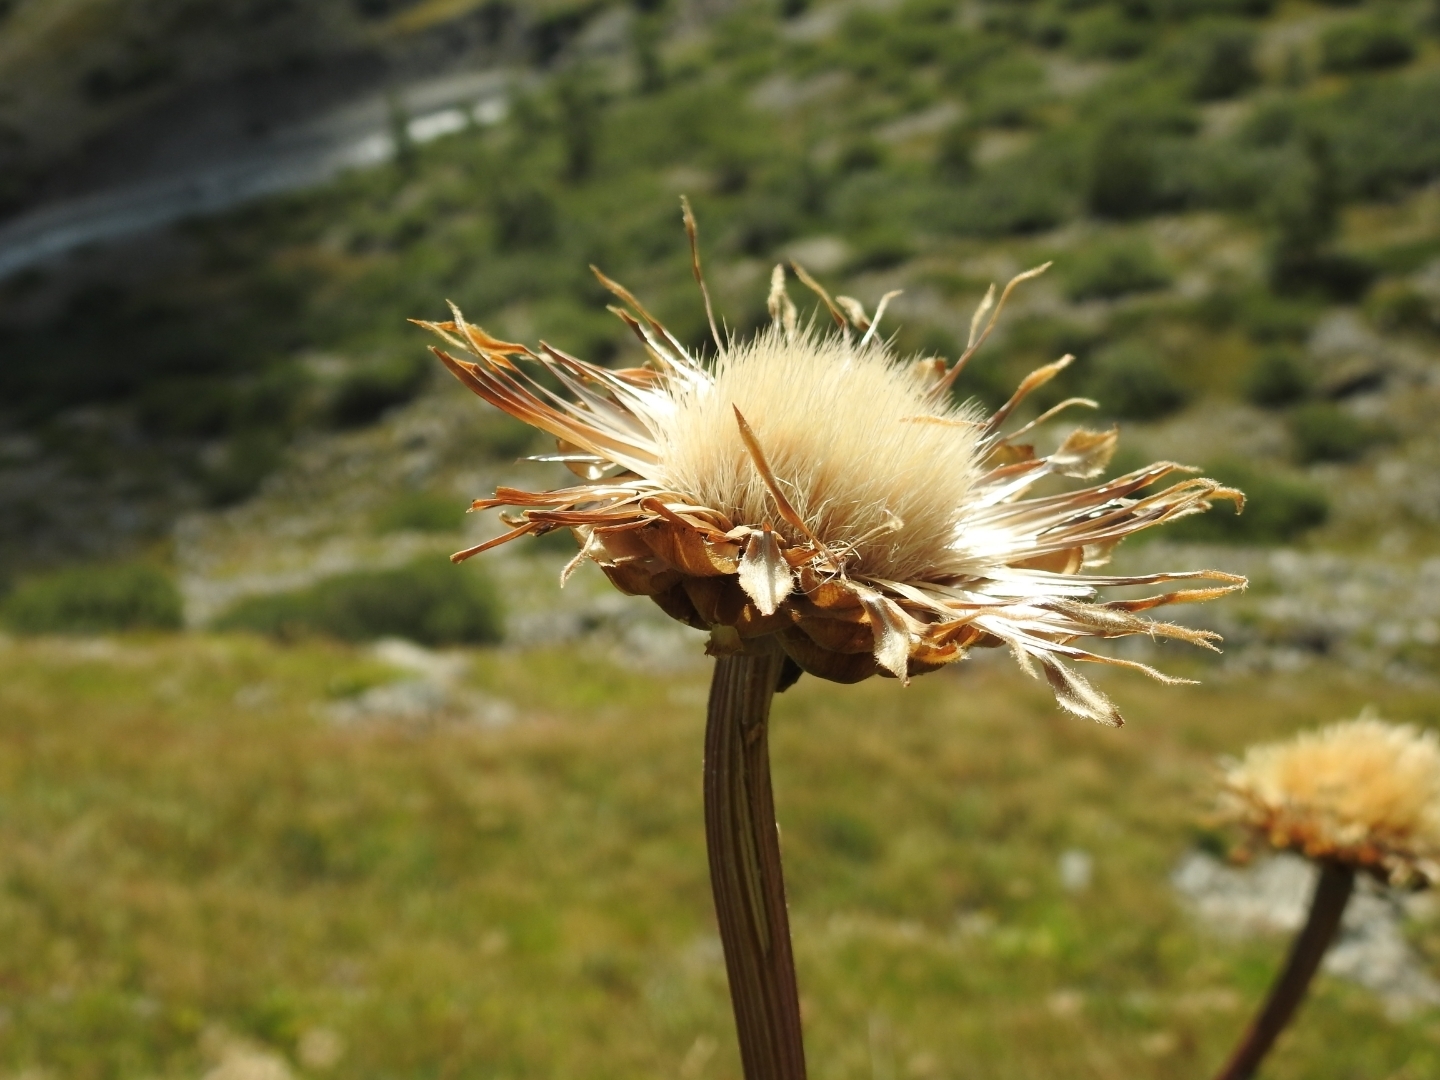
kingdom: Plantae
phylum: Tracheophyta
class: Magnoliopsida
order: Asterales
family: Asteraceae
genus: Leuzea
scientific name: Leuzea pusilla
